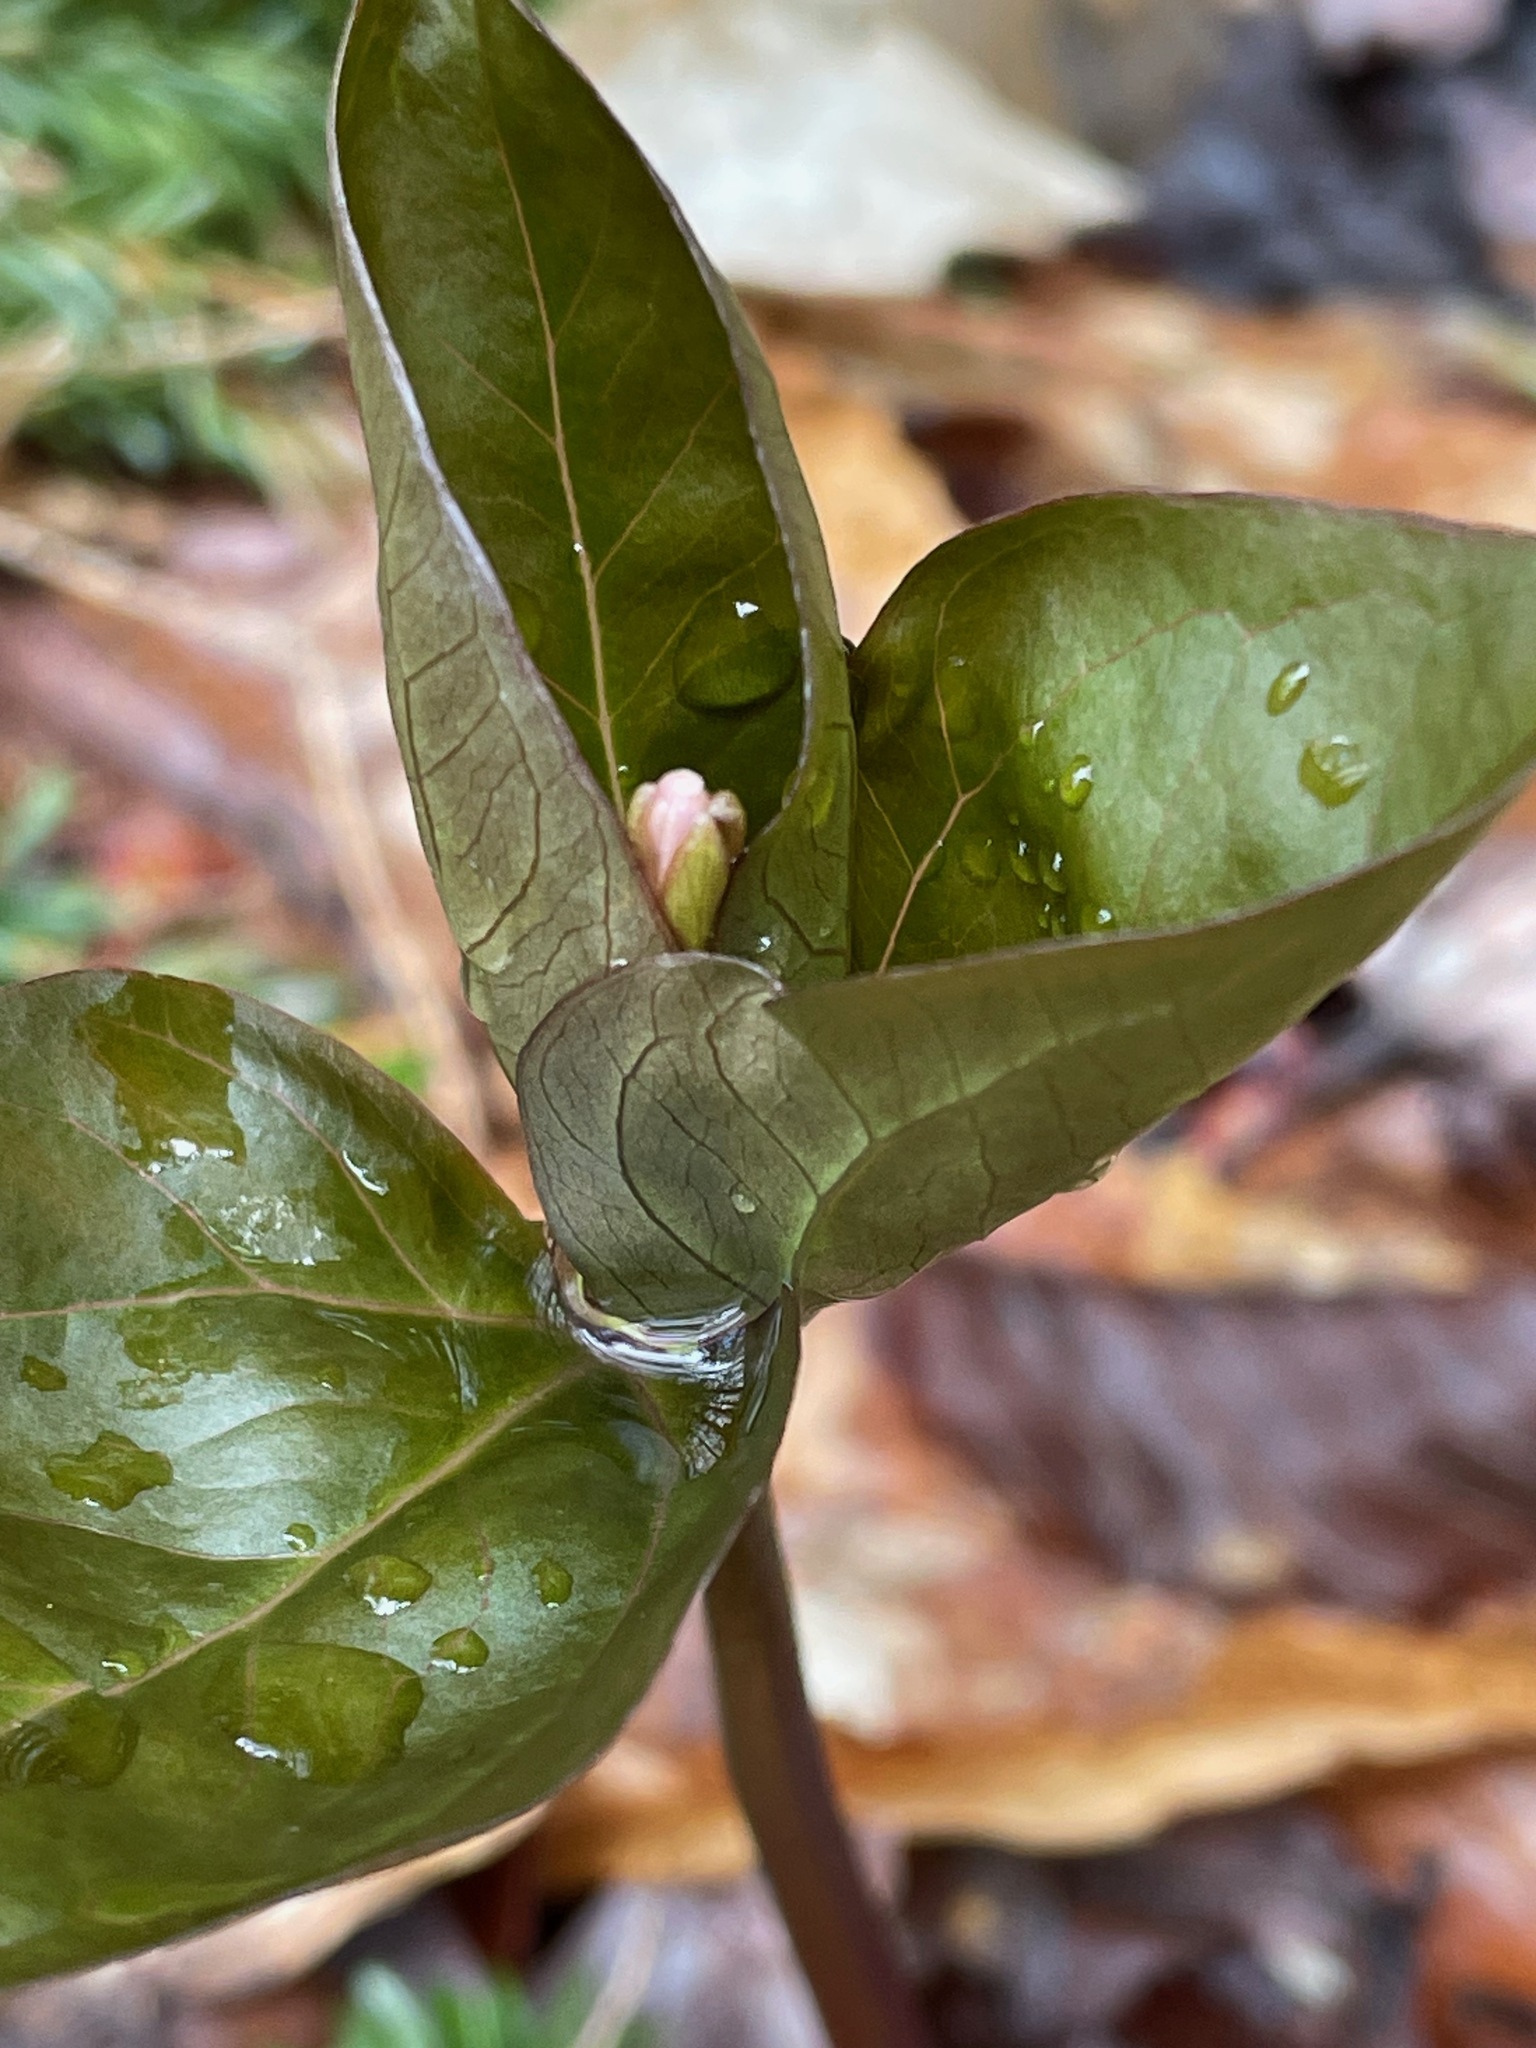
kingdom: Plantae
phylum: Tracheophyta
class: Liliopsida
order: Liliales
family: Melanthiaceae
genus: Trillium
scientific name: Trillium undulatum
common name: Paint trillium
